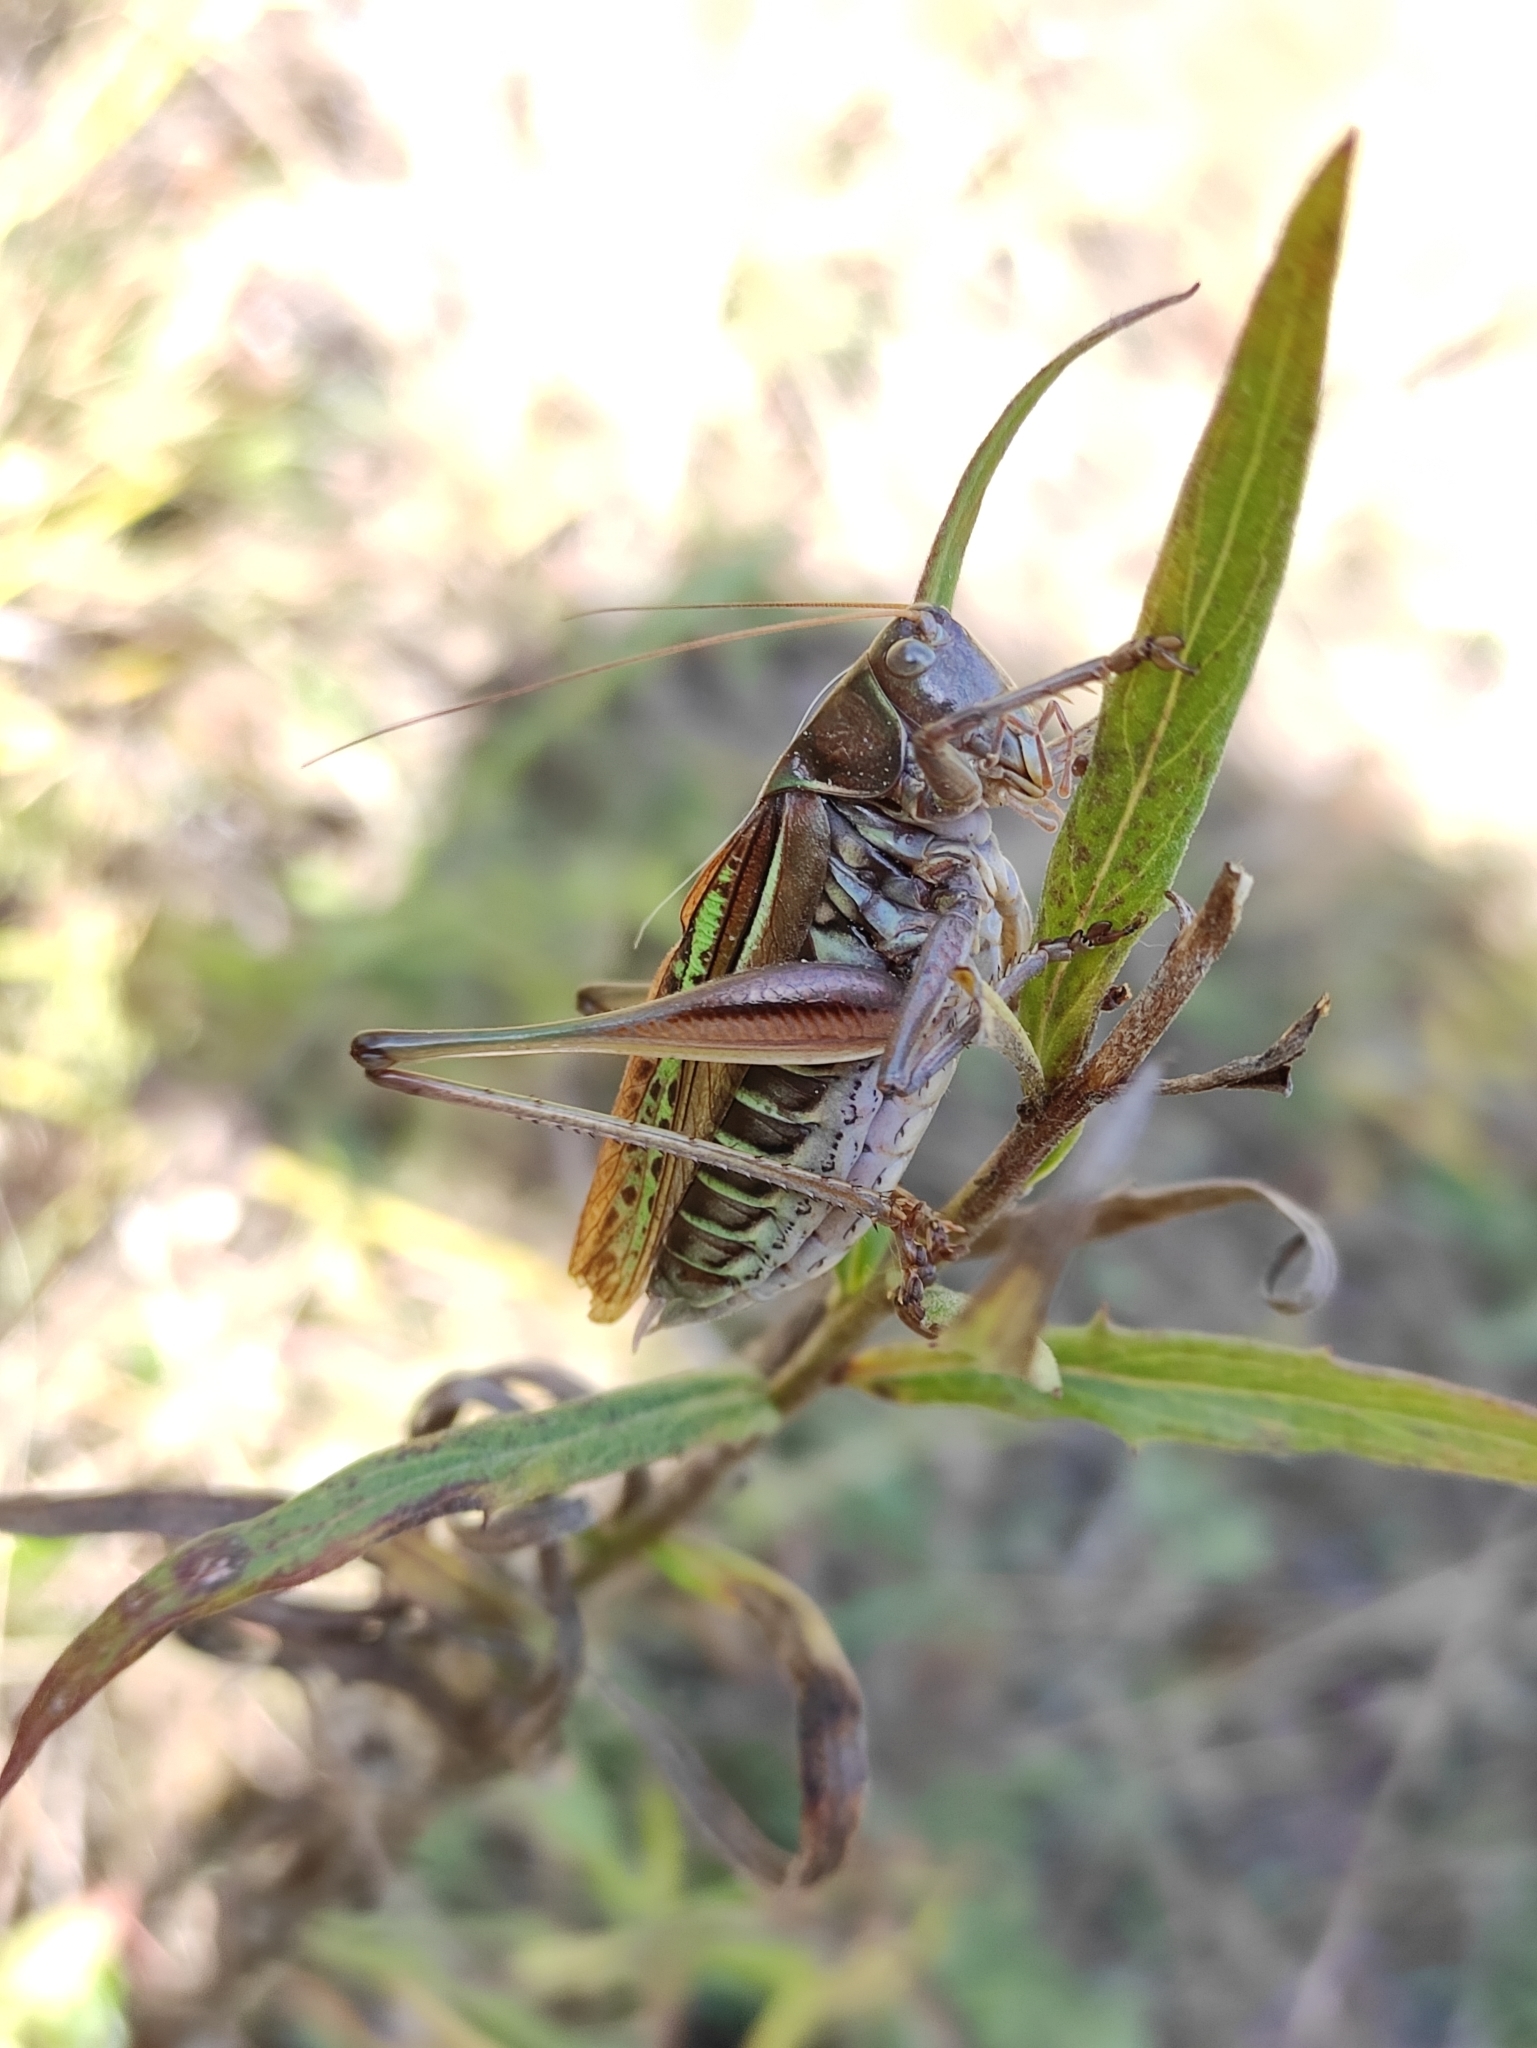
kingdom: Animalia
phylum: Arthropoda
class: Insecta
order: Orthoptera
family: Tettigoniidae
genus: Gampsocleis
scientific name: Gampsocleis sedakovii
